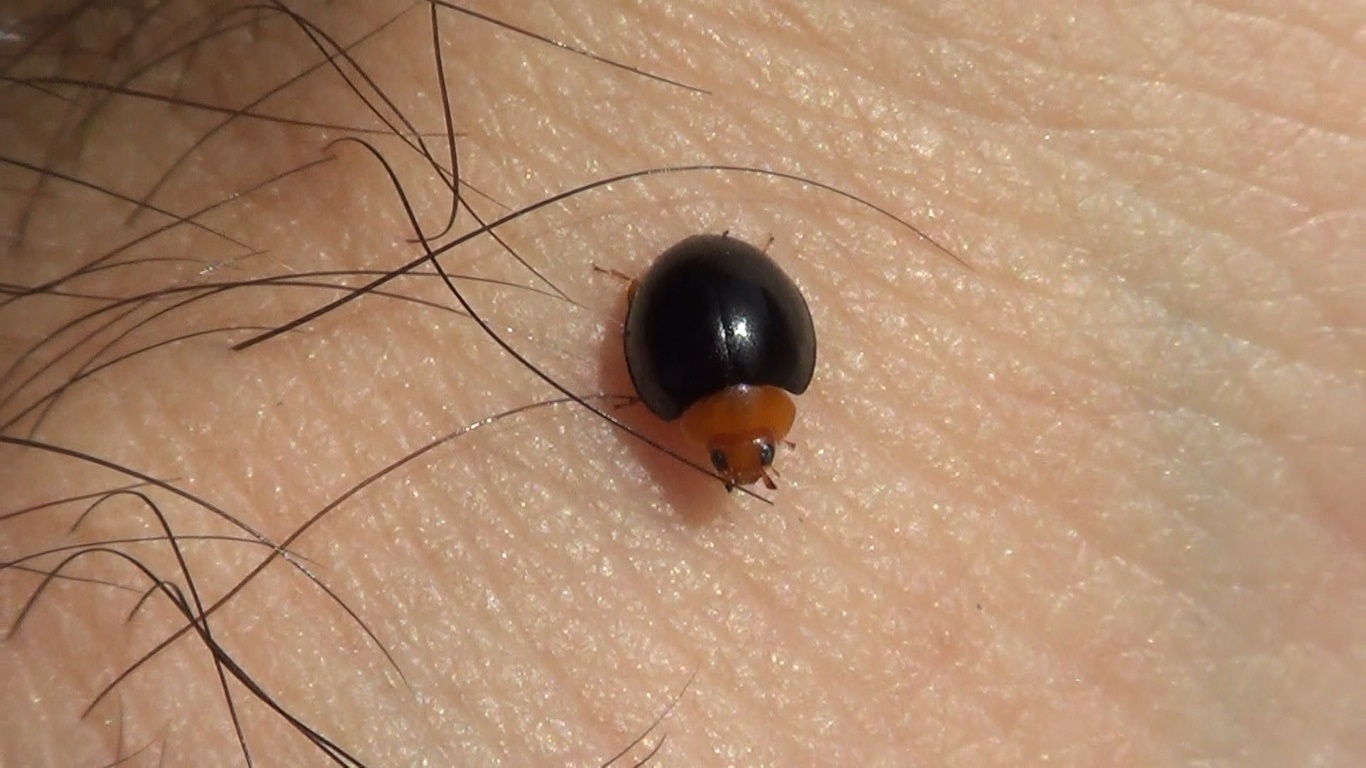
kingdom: Animalia
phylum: Arthropoda
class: Insecta
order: Coleoptera
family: Coccinellidae
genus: Exochomus
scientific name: Exochomus nigripennis
